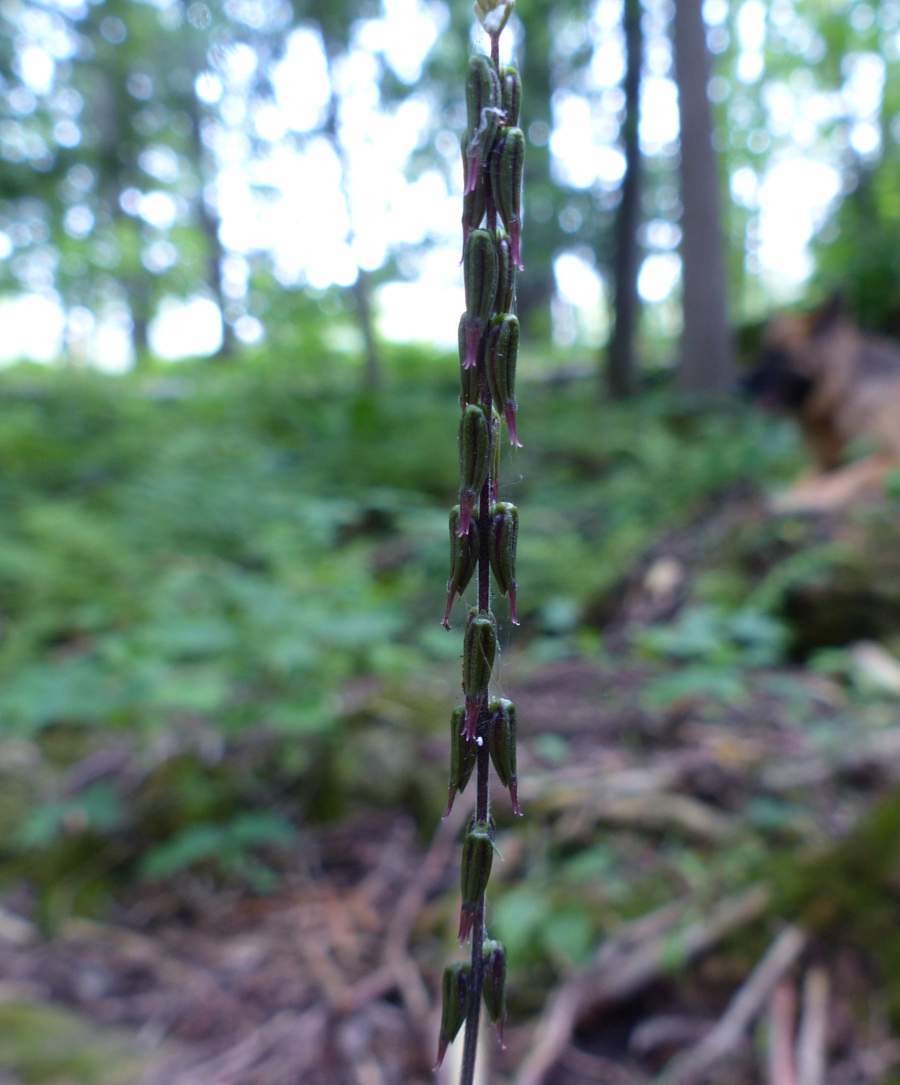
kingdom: Plantae
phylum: Tracheophyta
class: Magnoliopsida
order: Lamiales
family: Phrymaceae
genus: Phryma
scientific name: Phryma leptostachya
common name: American lopseed
